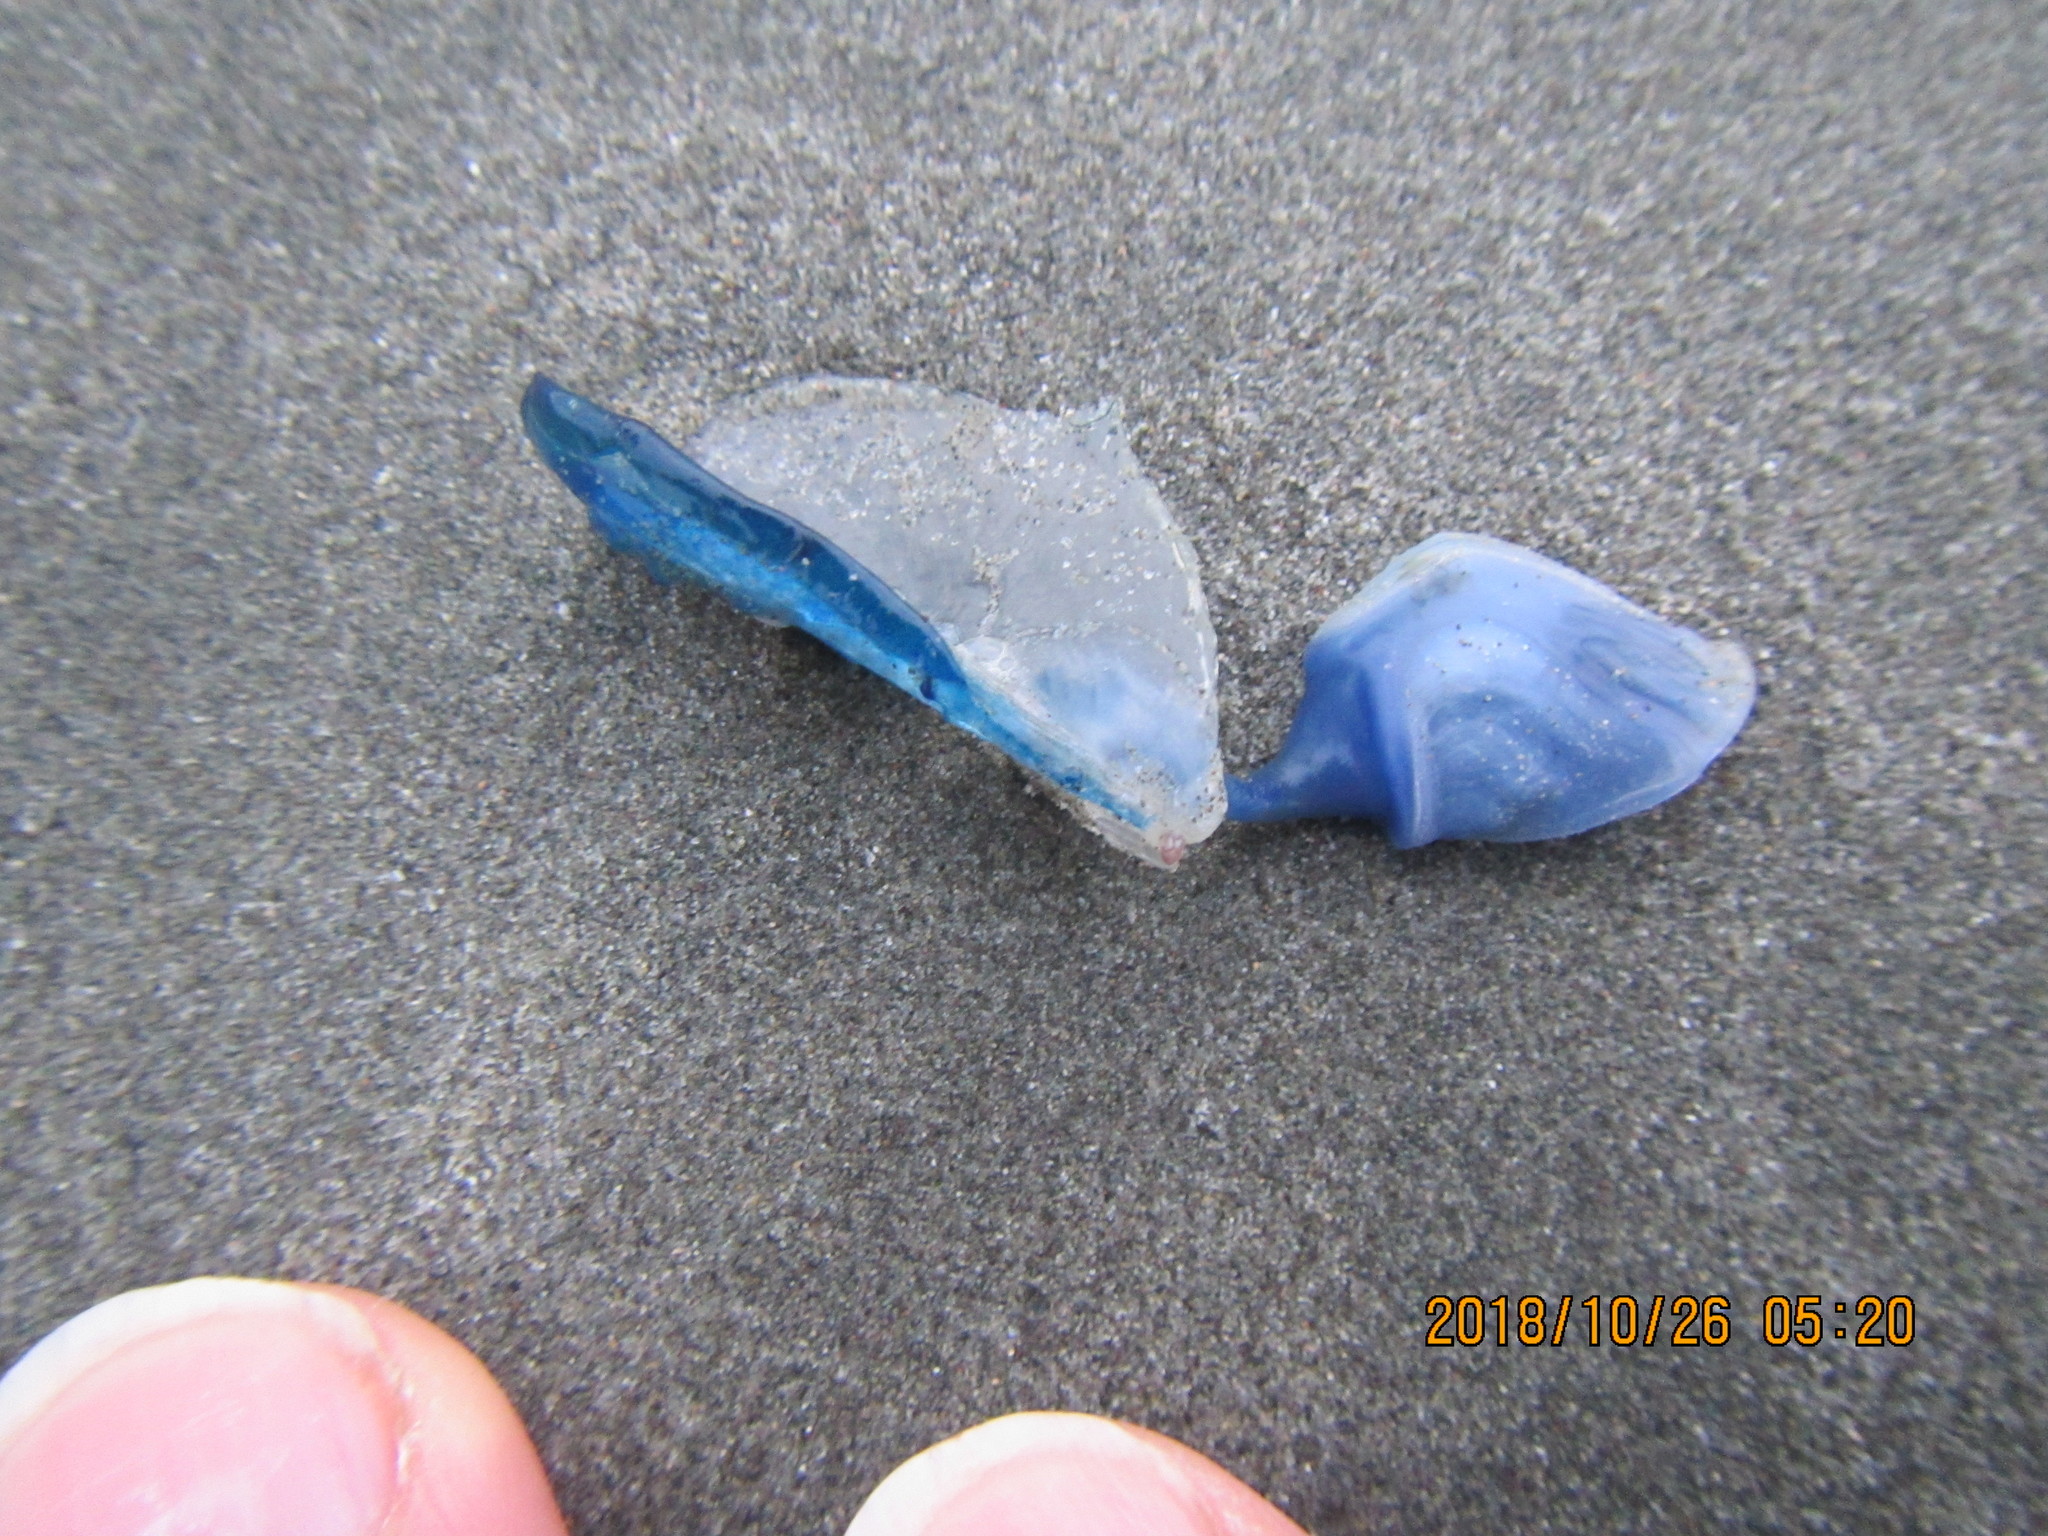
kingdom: Animalia
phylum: Cnidaria
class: Hydrozoa
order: Anthoathecata
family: Porpitidae
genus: Velella
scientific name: Velella velella
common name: By-the-wind-sailor
